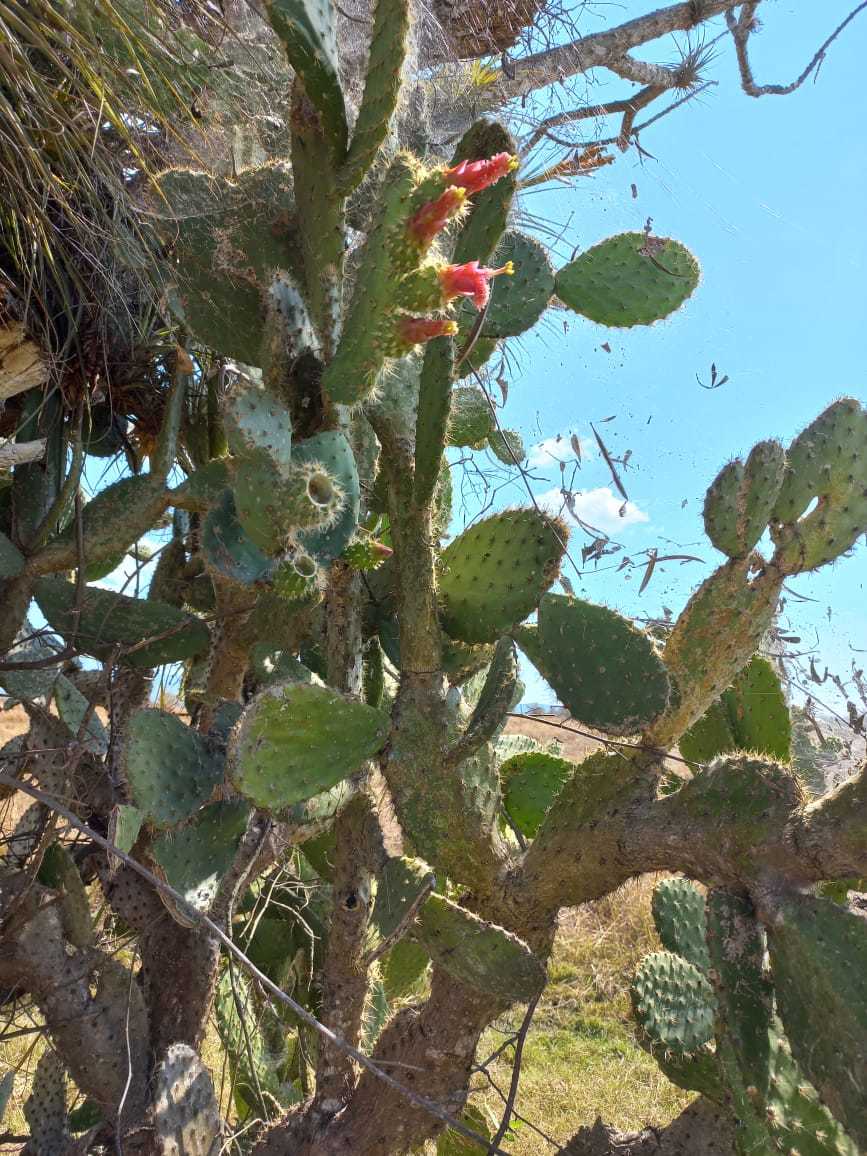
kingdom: Plantae
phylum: Tracheophyta
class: Magnoliopsida
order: Caryophyllales
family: Cactaceae
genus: Opuntia
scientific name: Opuntia lutea
